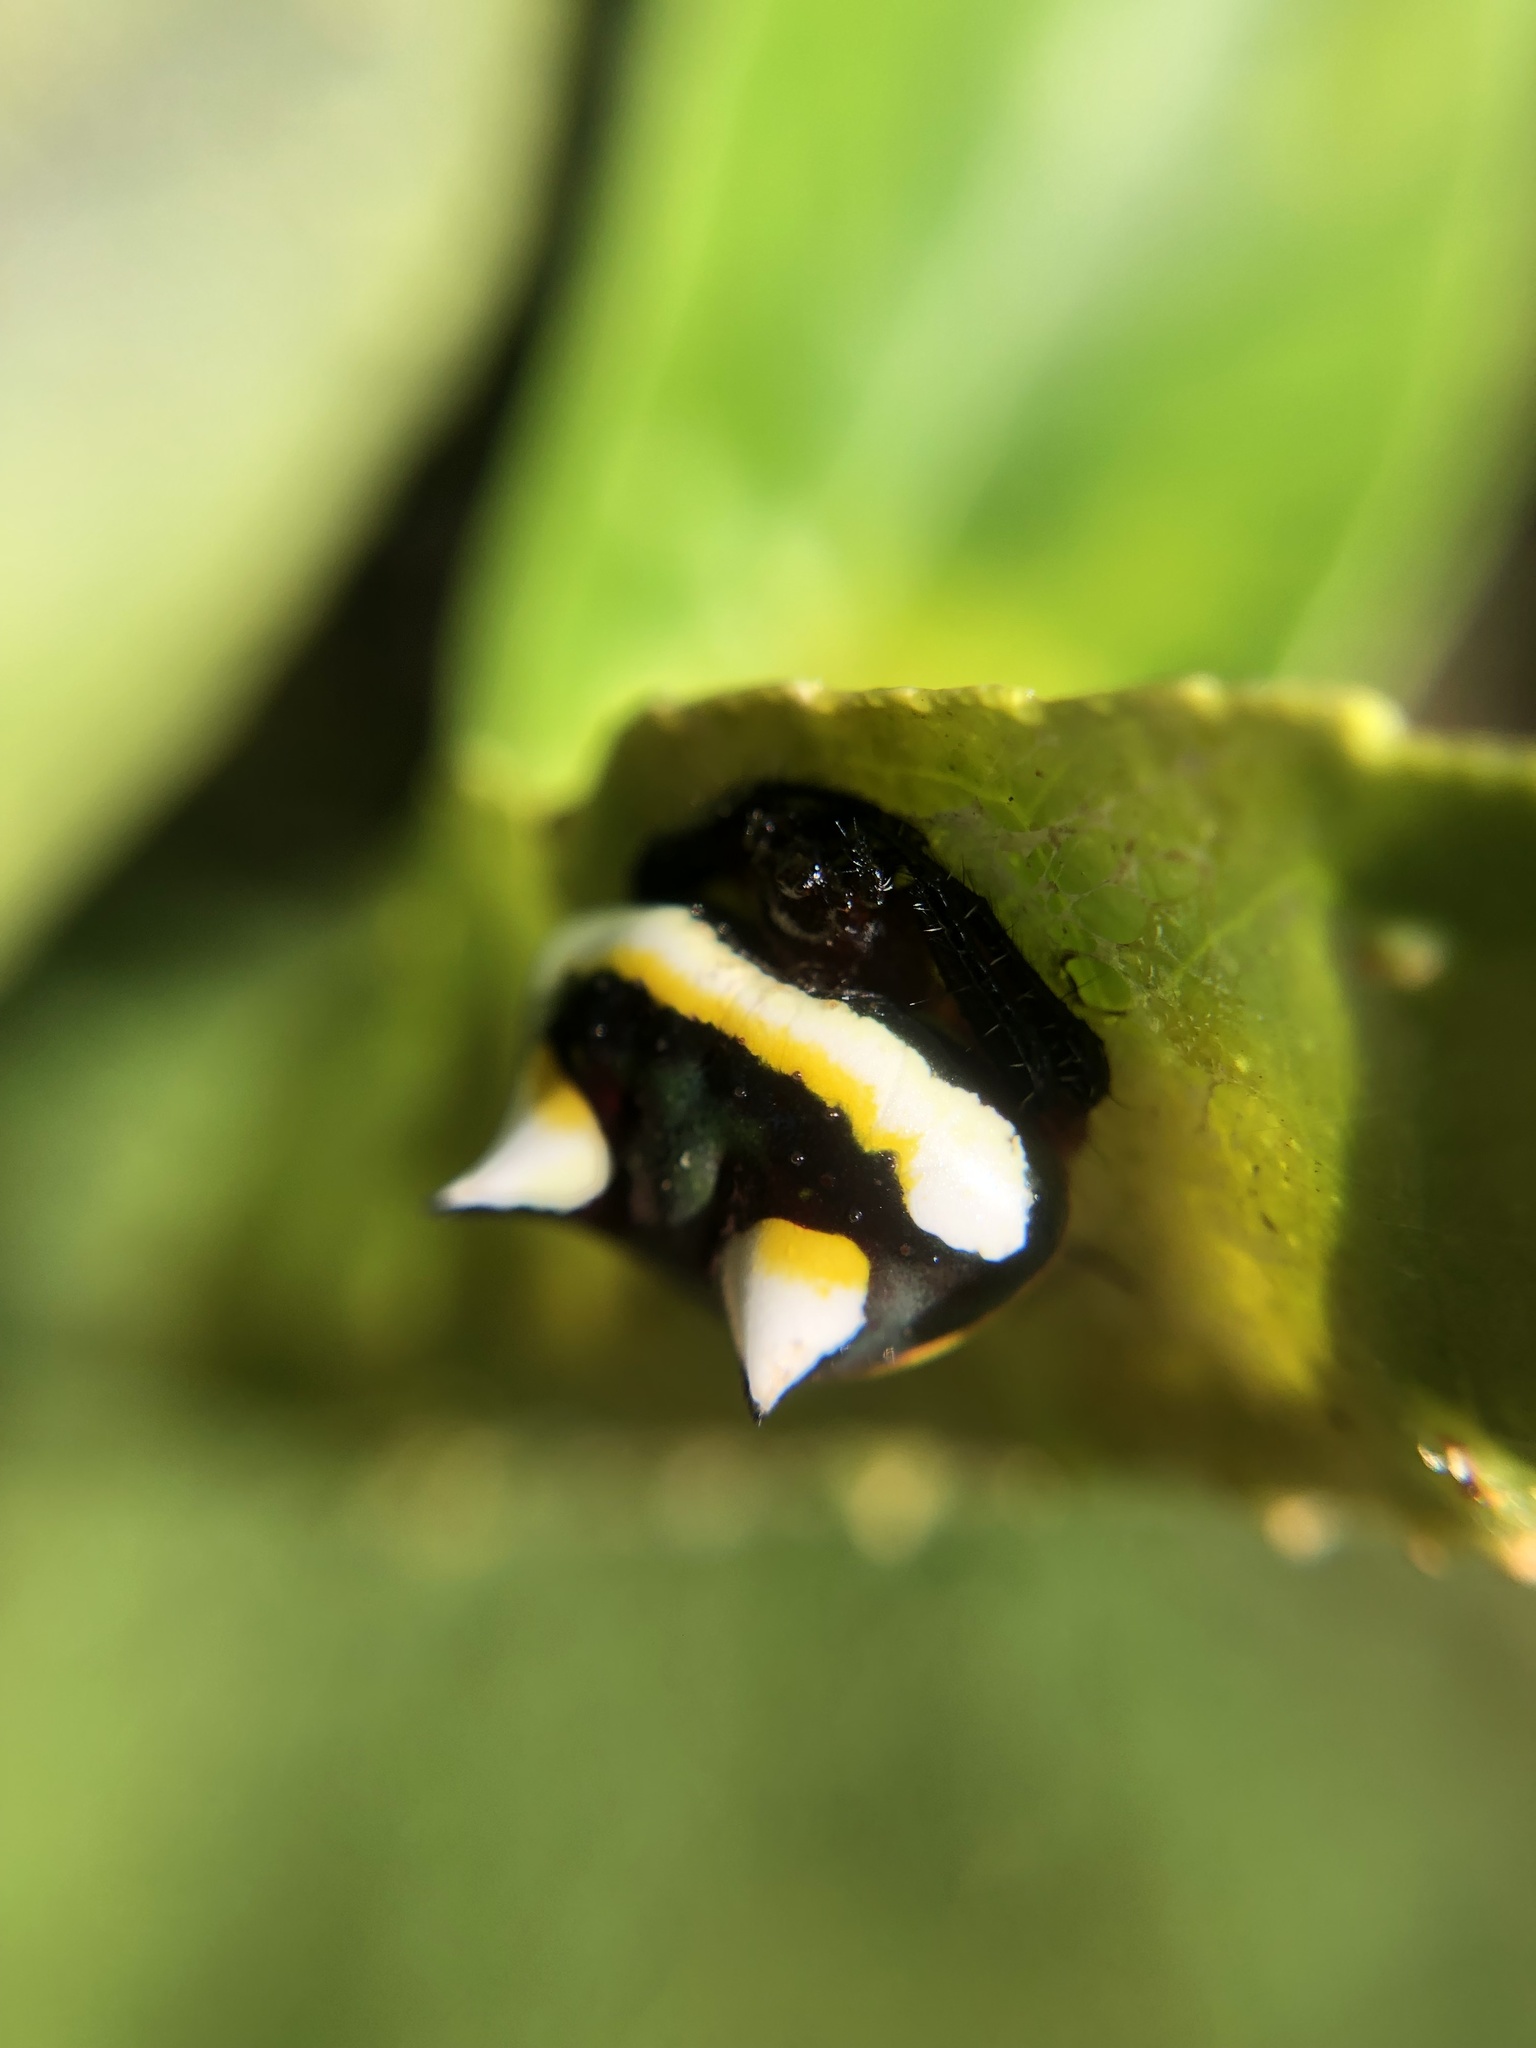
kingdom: Animalia
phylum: Arthropoda
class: Arachnida
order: Araneae
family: Araneidae
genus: Poecilopachys
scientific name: Poecilopachys australasia
